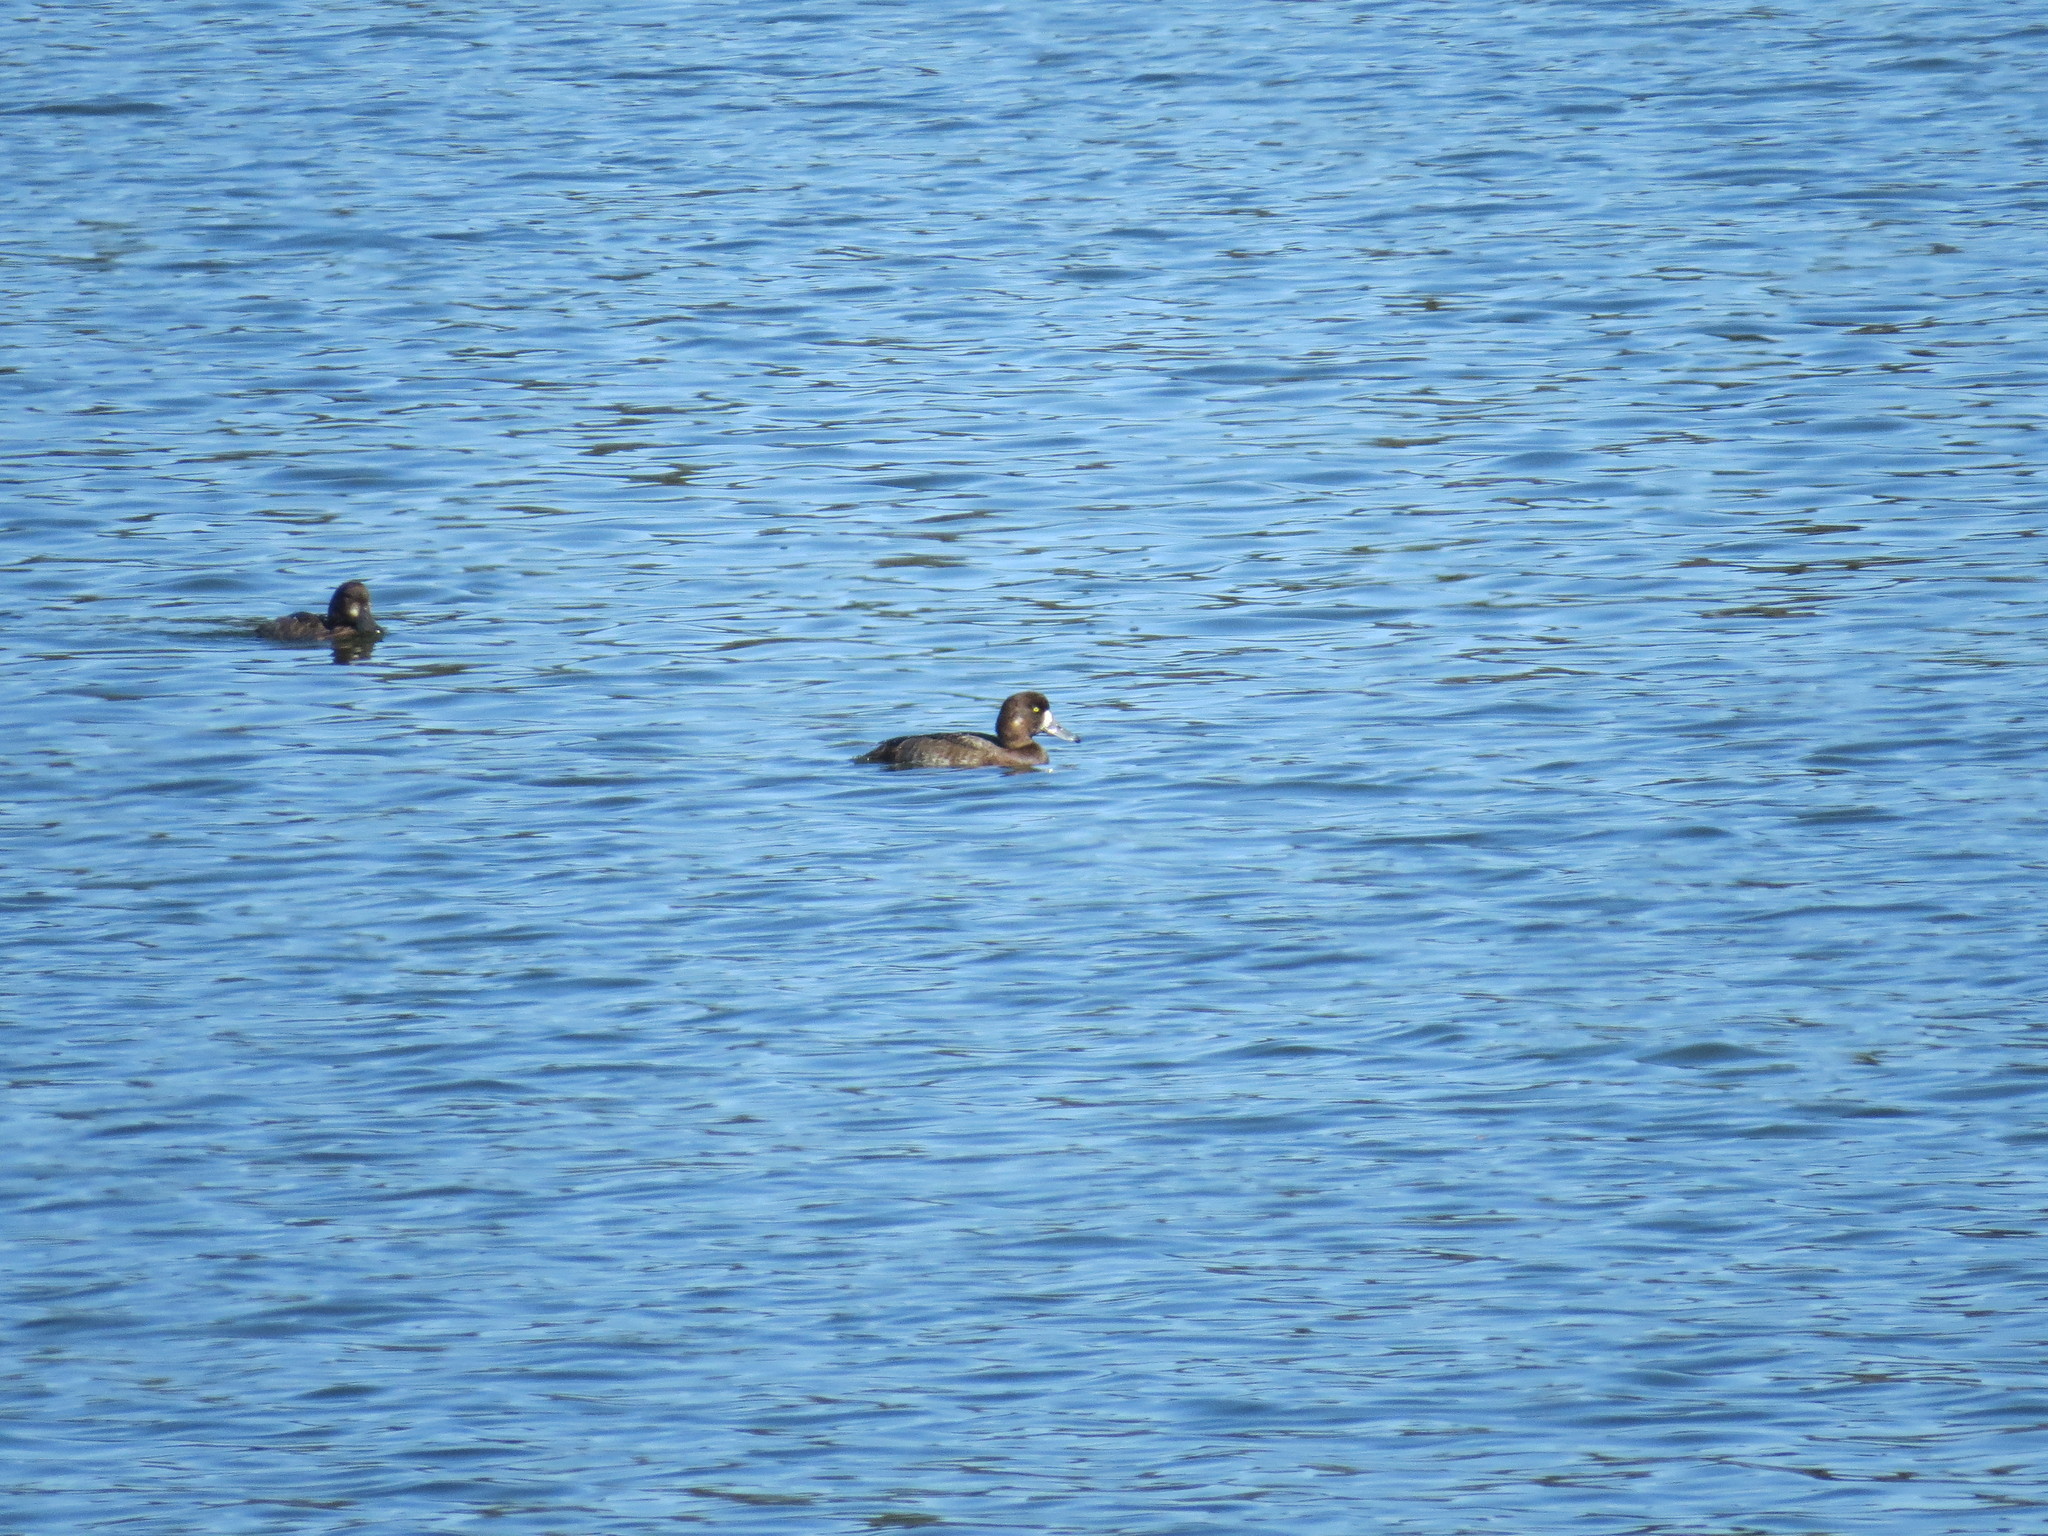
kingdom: Animalia
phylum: Chordata
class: Aves
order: Anseriformes
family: Anatidae
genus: Aythya
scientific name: Aythya marila
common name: Greater scaup
